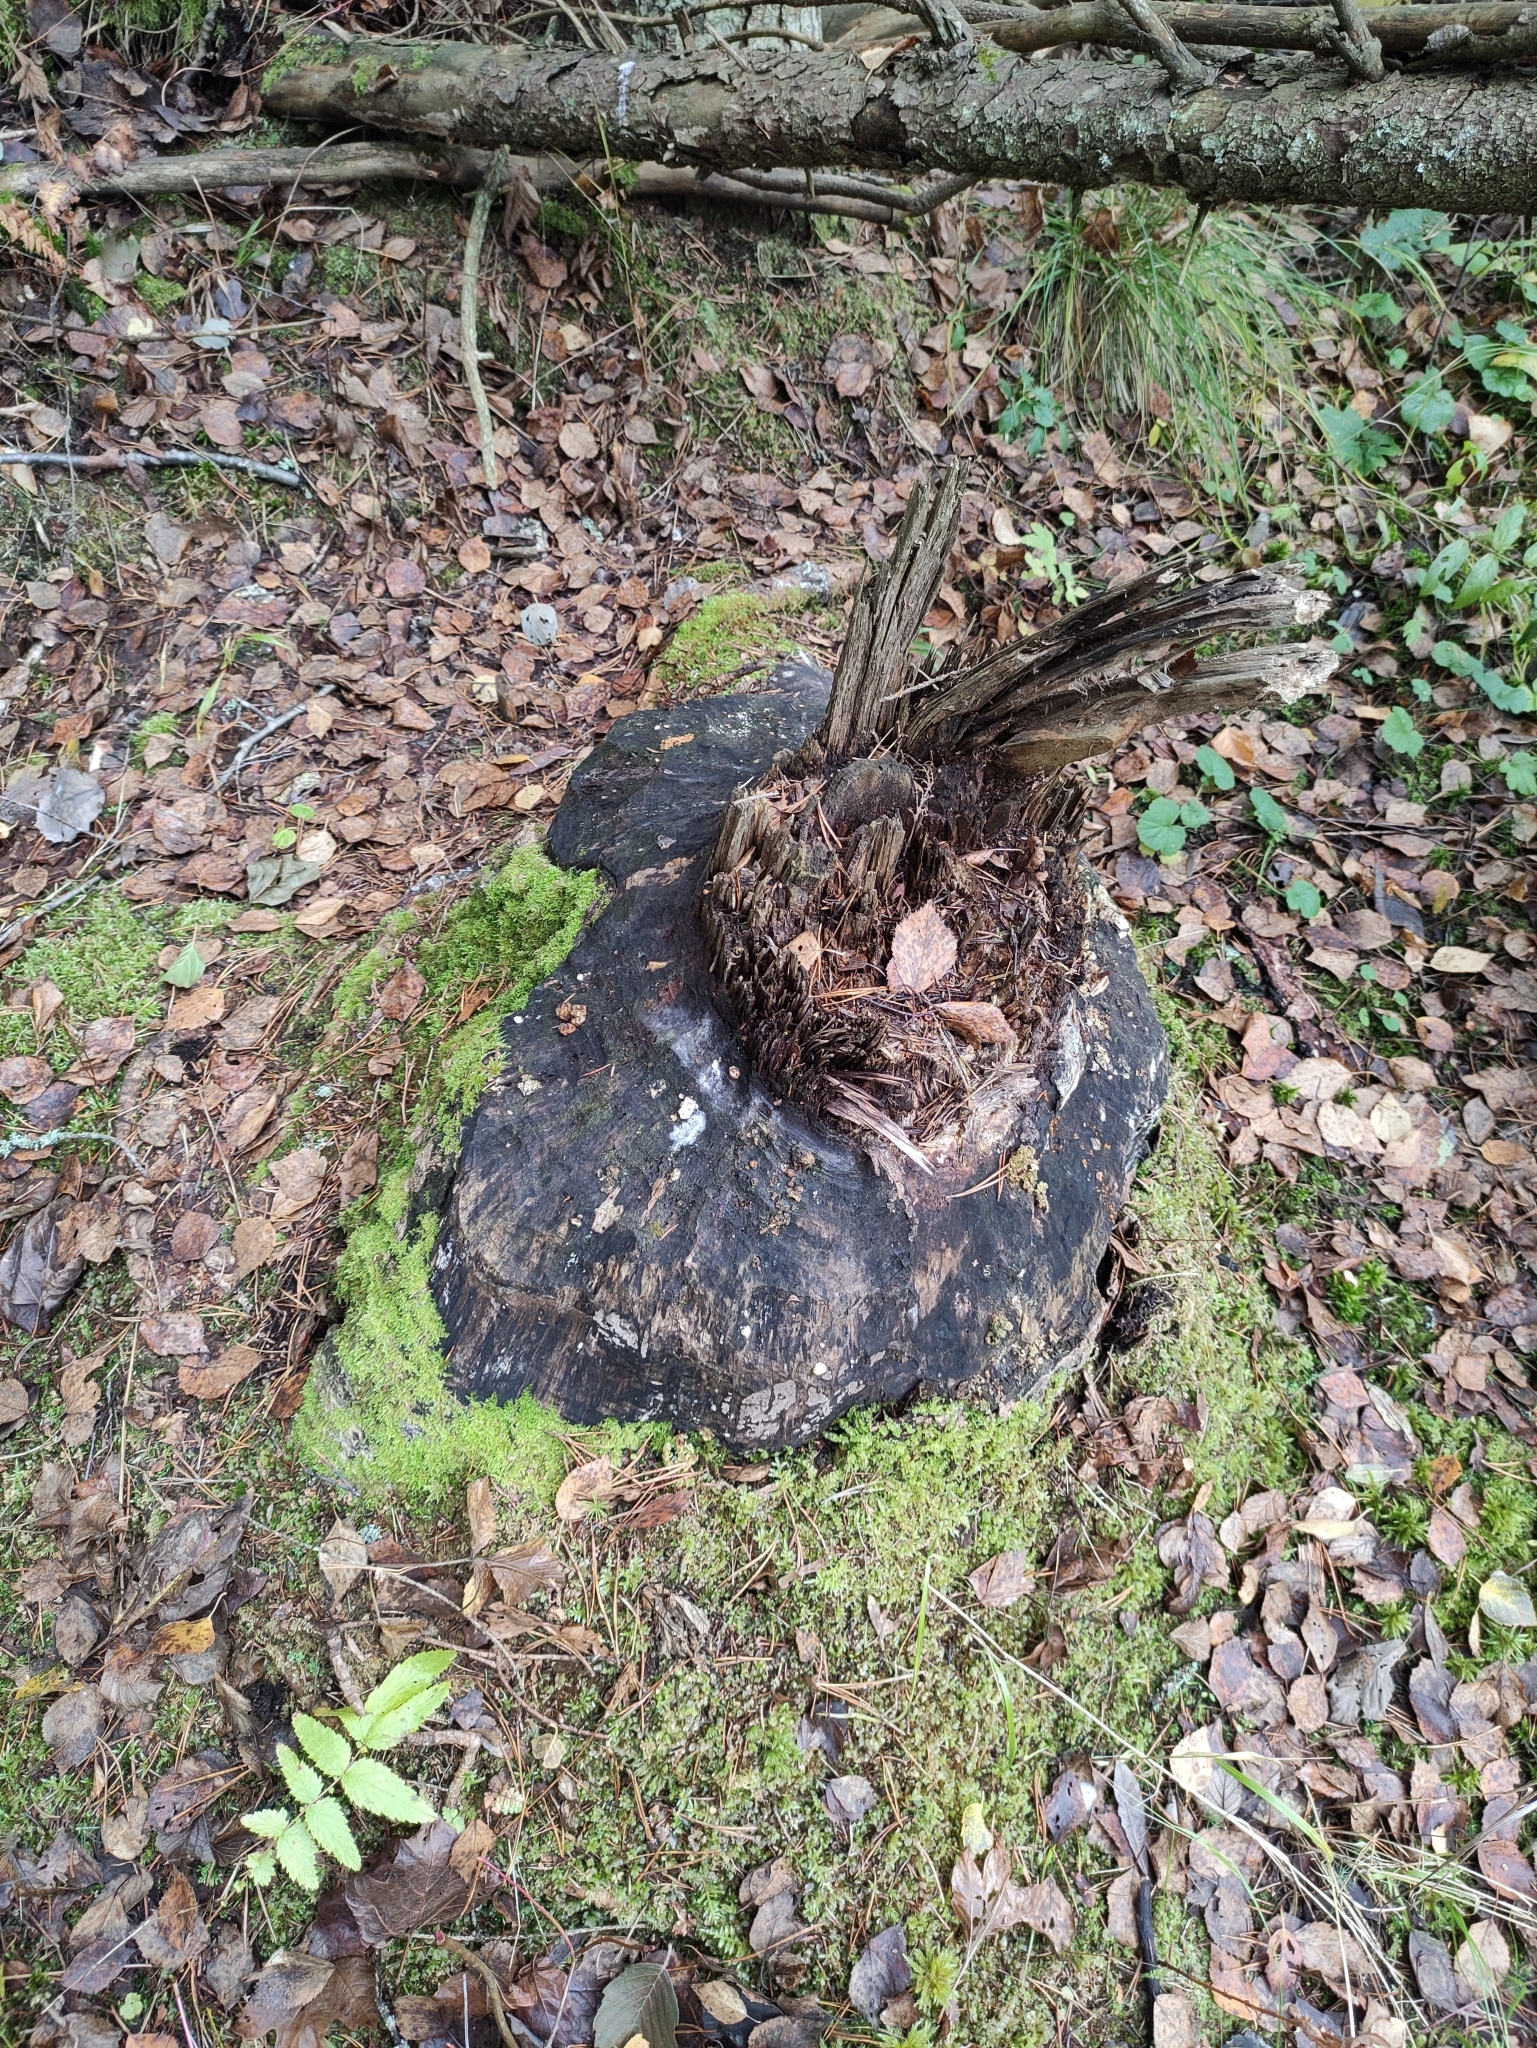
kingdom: Animalia
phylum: Chordata
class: Mammalia
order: Rodentia
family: Castoridae
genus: Castor
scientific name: Castor fiber
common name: Eurasian beaver
